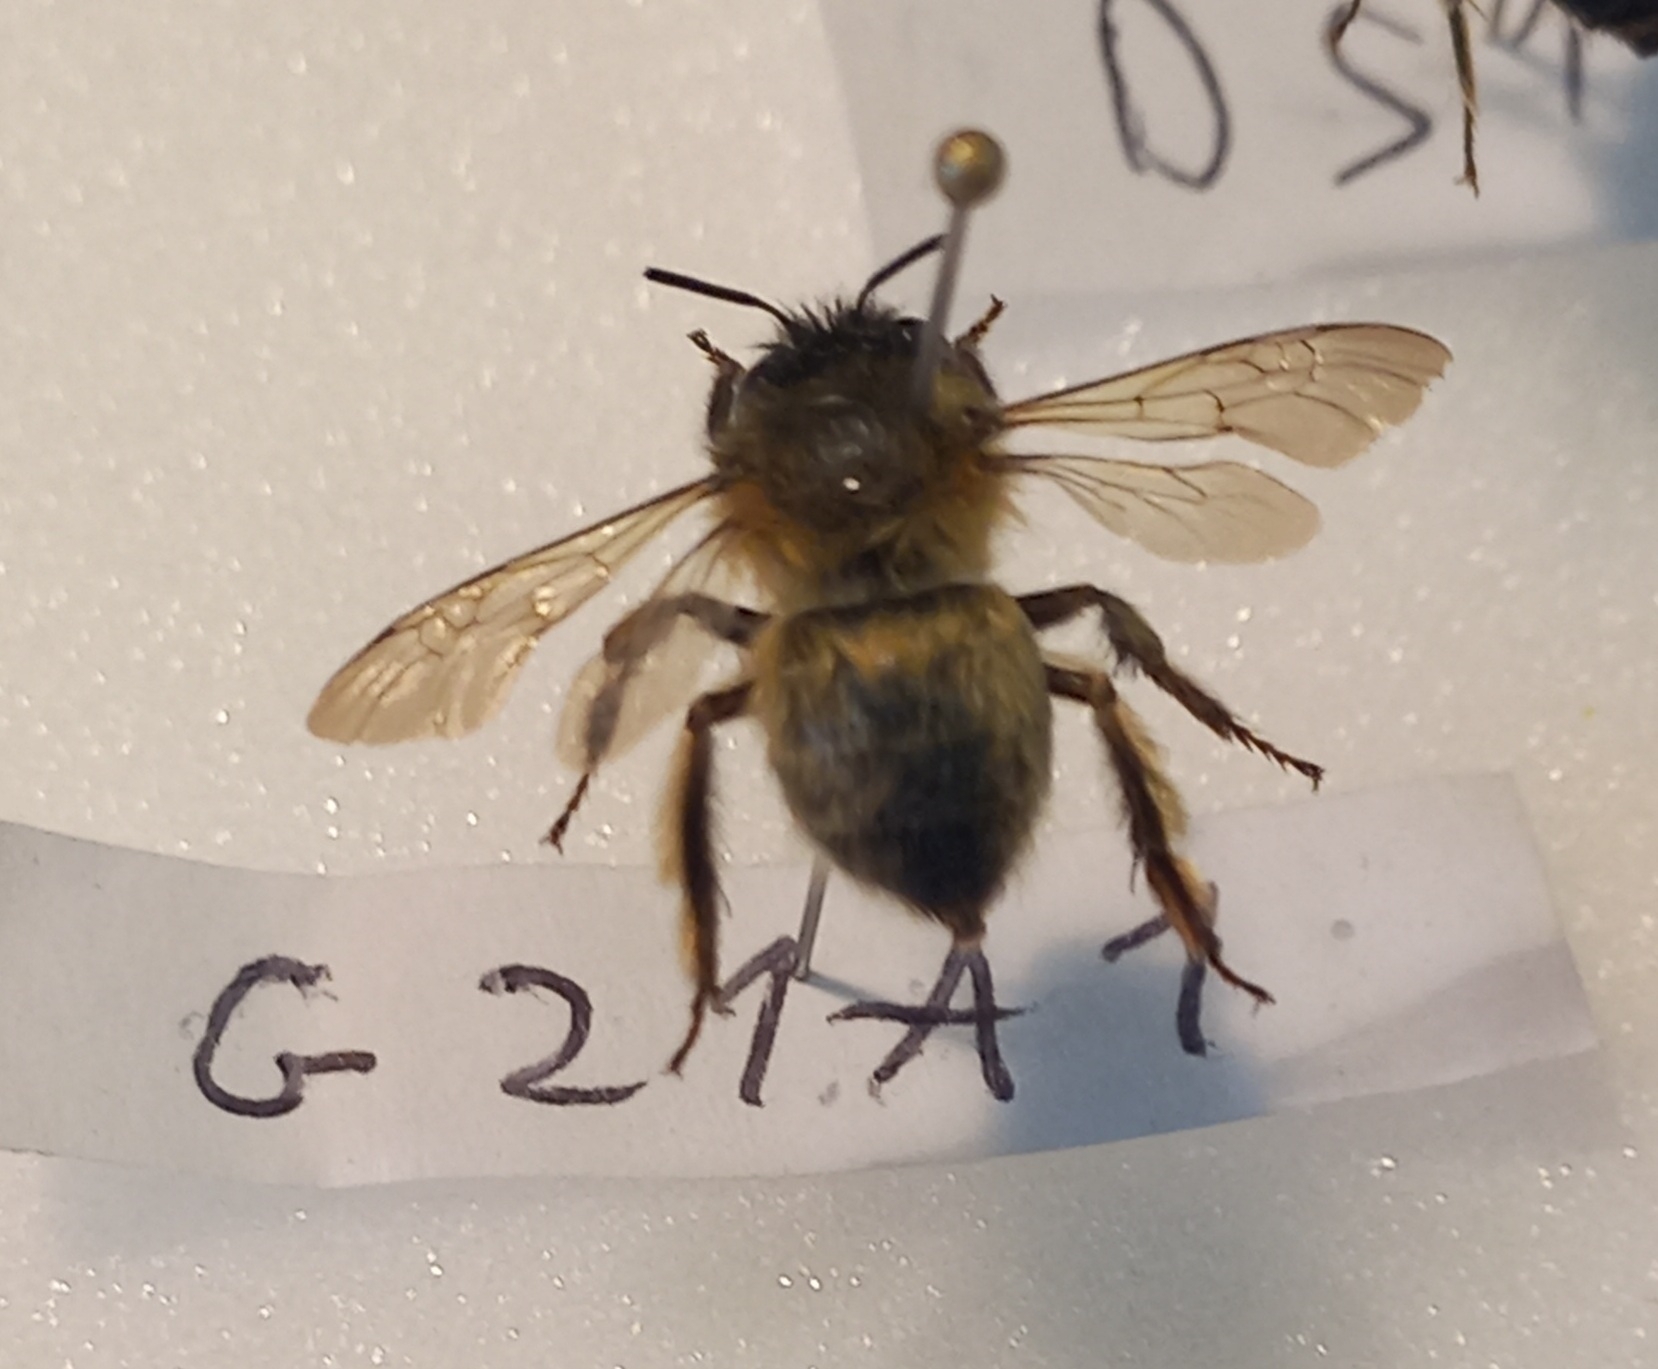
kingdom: Animalia
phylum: Arthropoda
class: Insecta
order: Hymenoptera
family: Apidae
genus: Anthophora
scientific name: Anthophora plumipes
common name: Hairy-footed flower bee
